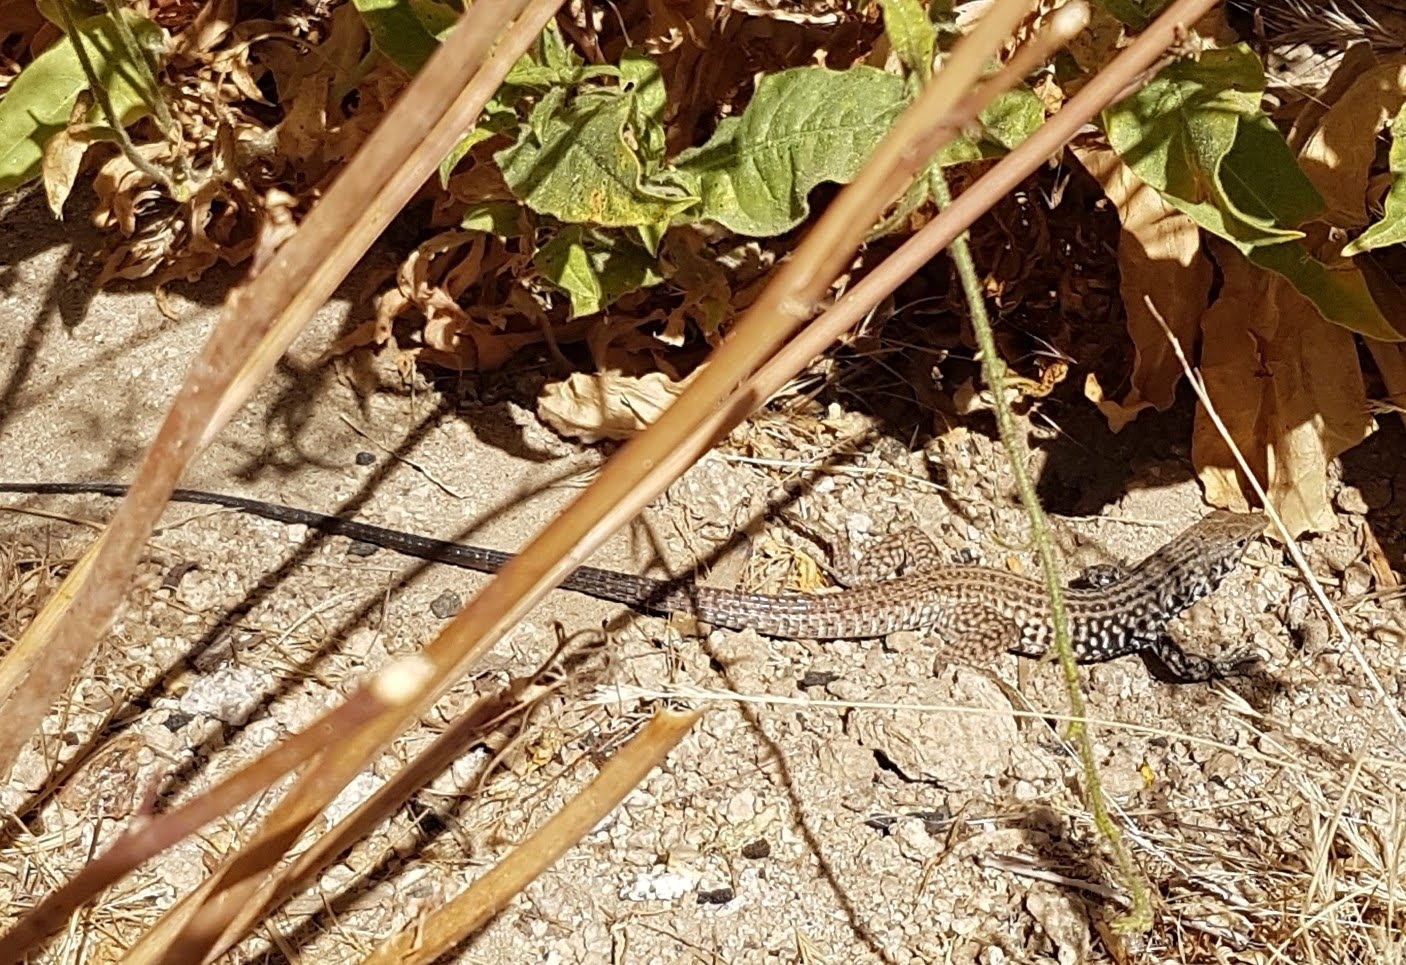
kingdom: Animalia
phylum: Chordata
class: Squamata
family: Teiidae
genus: Aspidoscelis
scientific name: Aspidoscelis tigris
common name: Tiger whiptail
